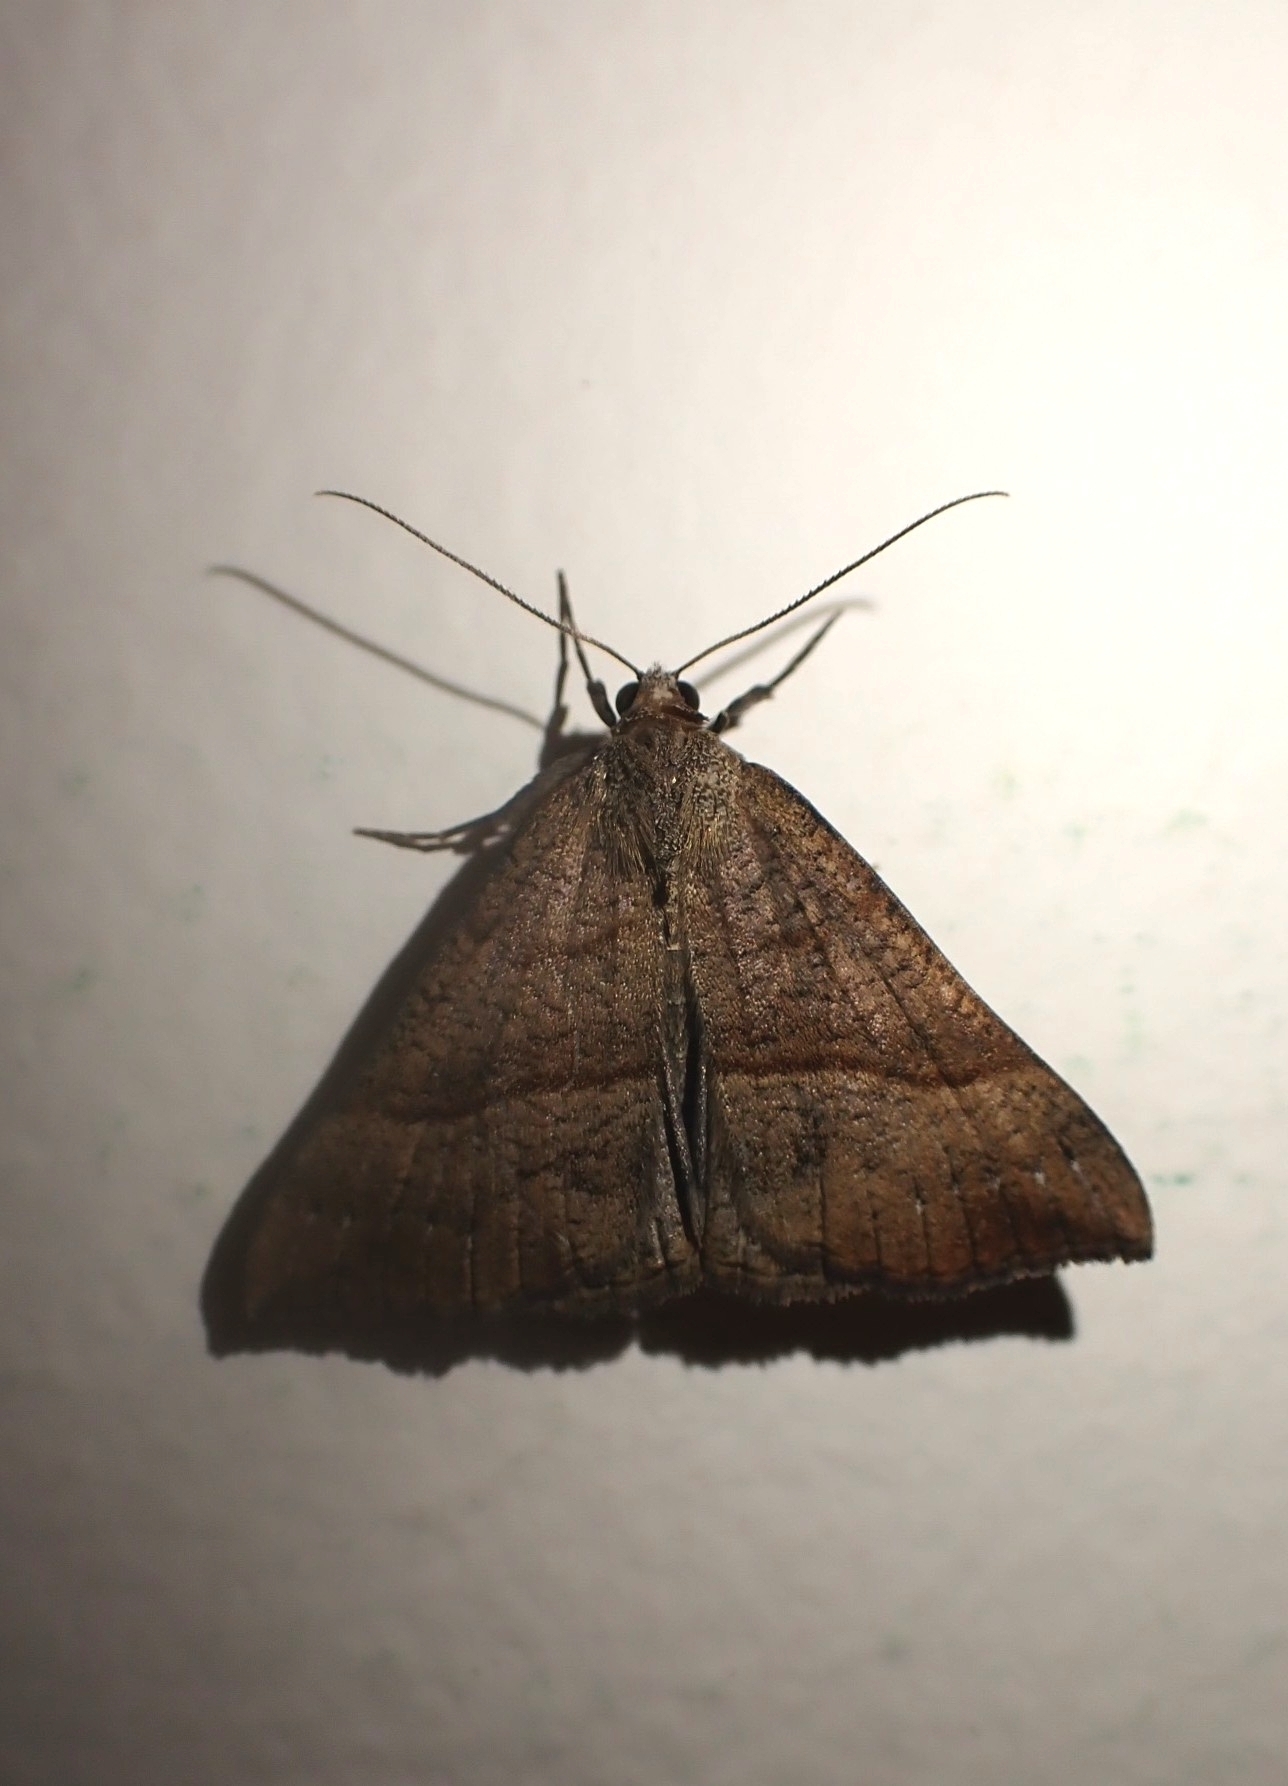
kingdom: Animalia
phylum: Arthropoda
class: Insecta
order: Lepidoptera
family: Erebidae
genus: Hypena
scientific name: Hypena proboscidalis
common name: Snout
